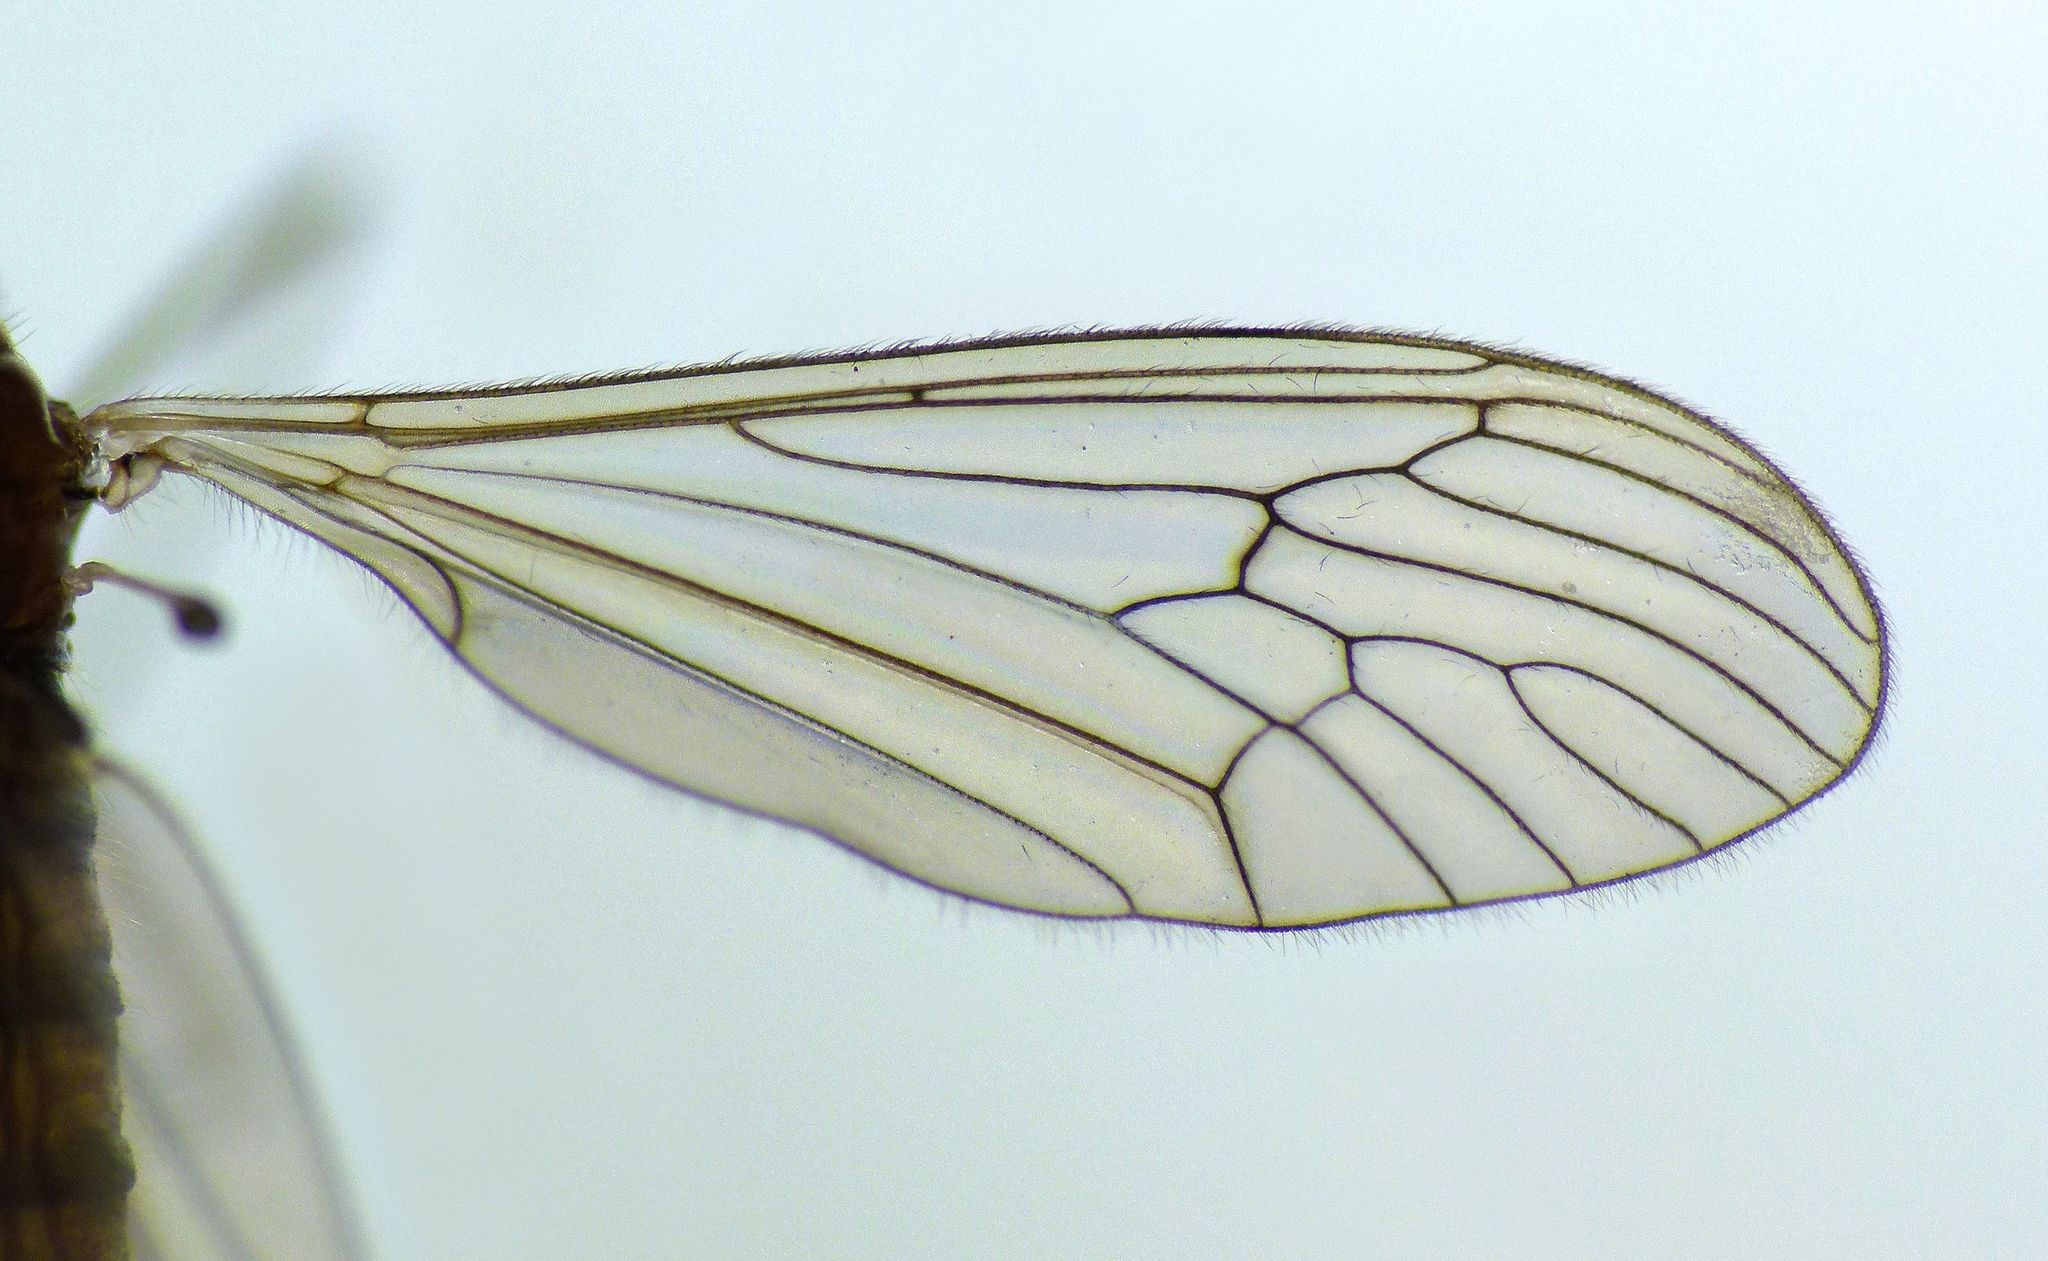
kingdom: Animalia
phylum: Arthropoda
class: Insecta
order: Diptera
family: Trichoceridae
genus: Trichocera
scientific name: Trichocera annulata
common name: Winter gnat
